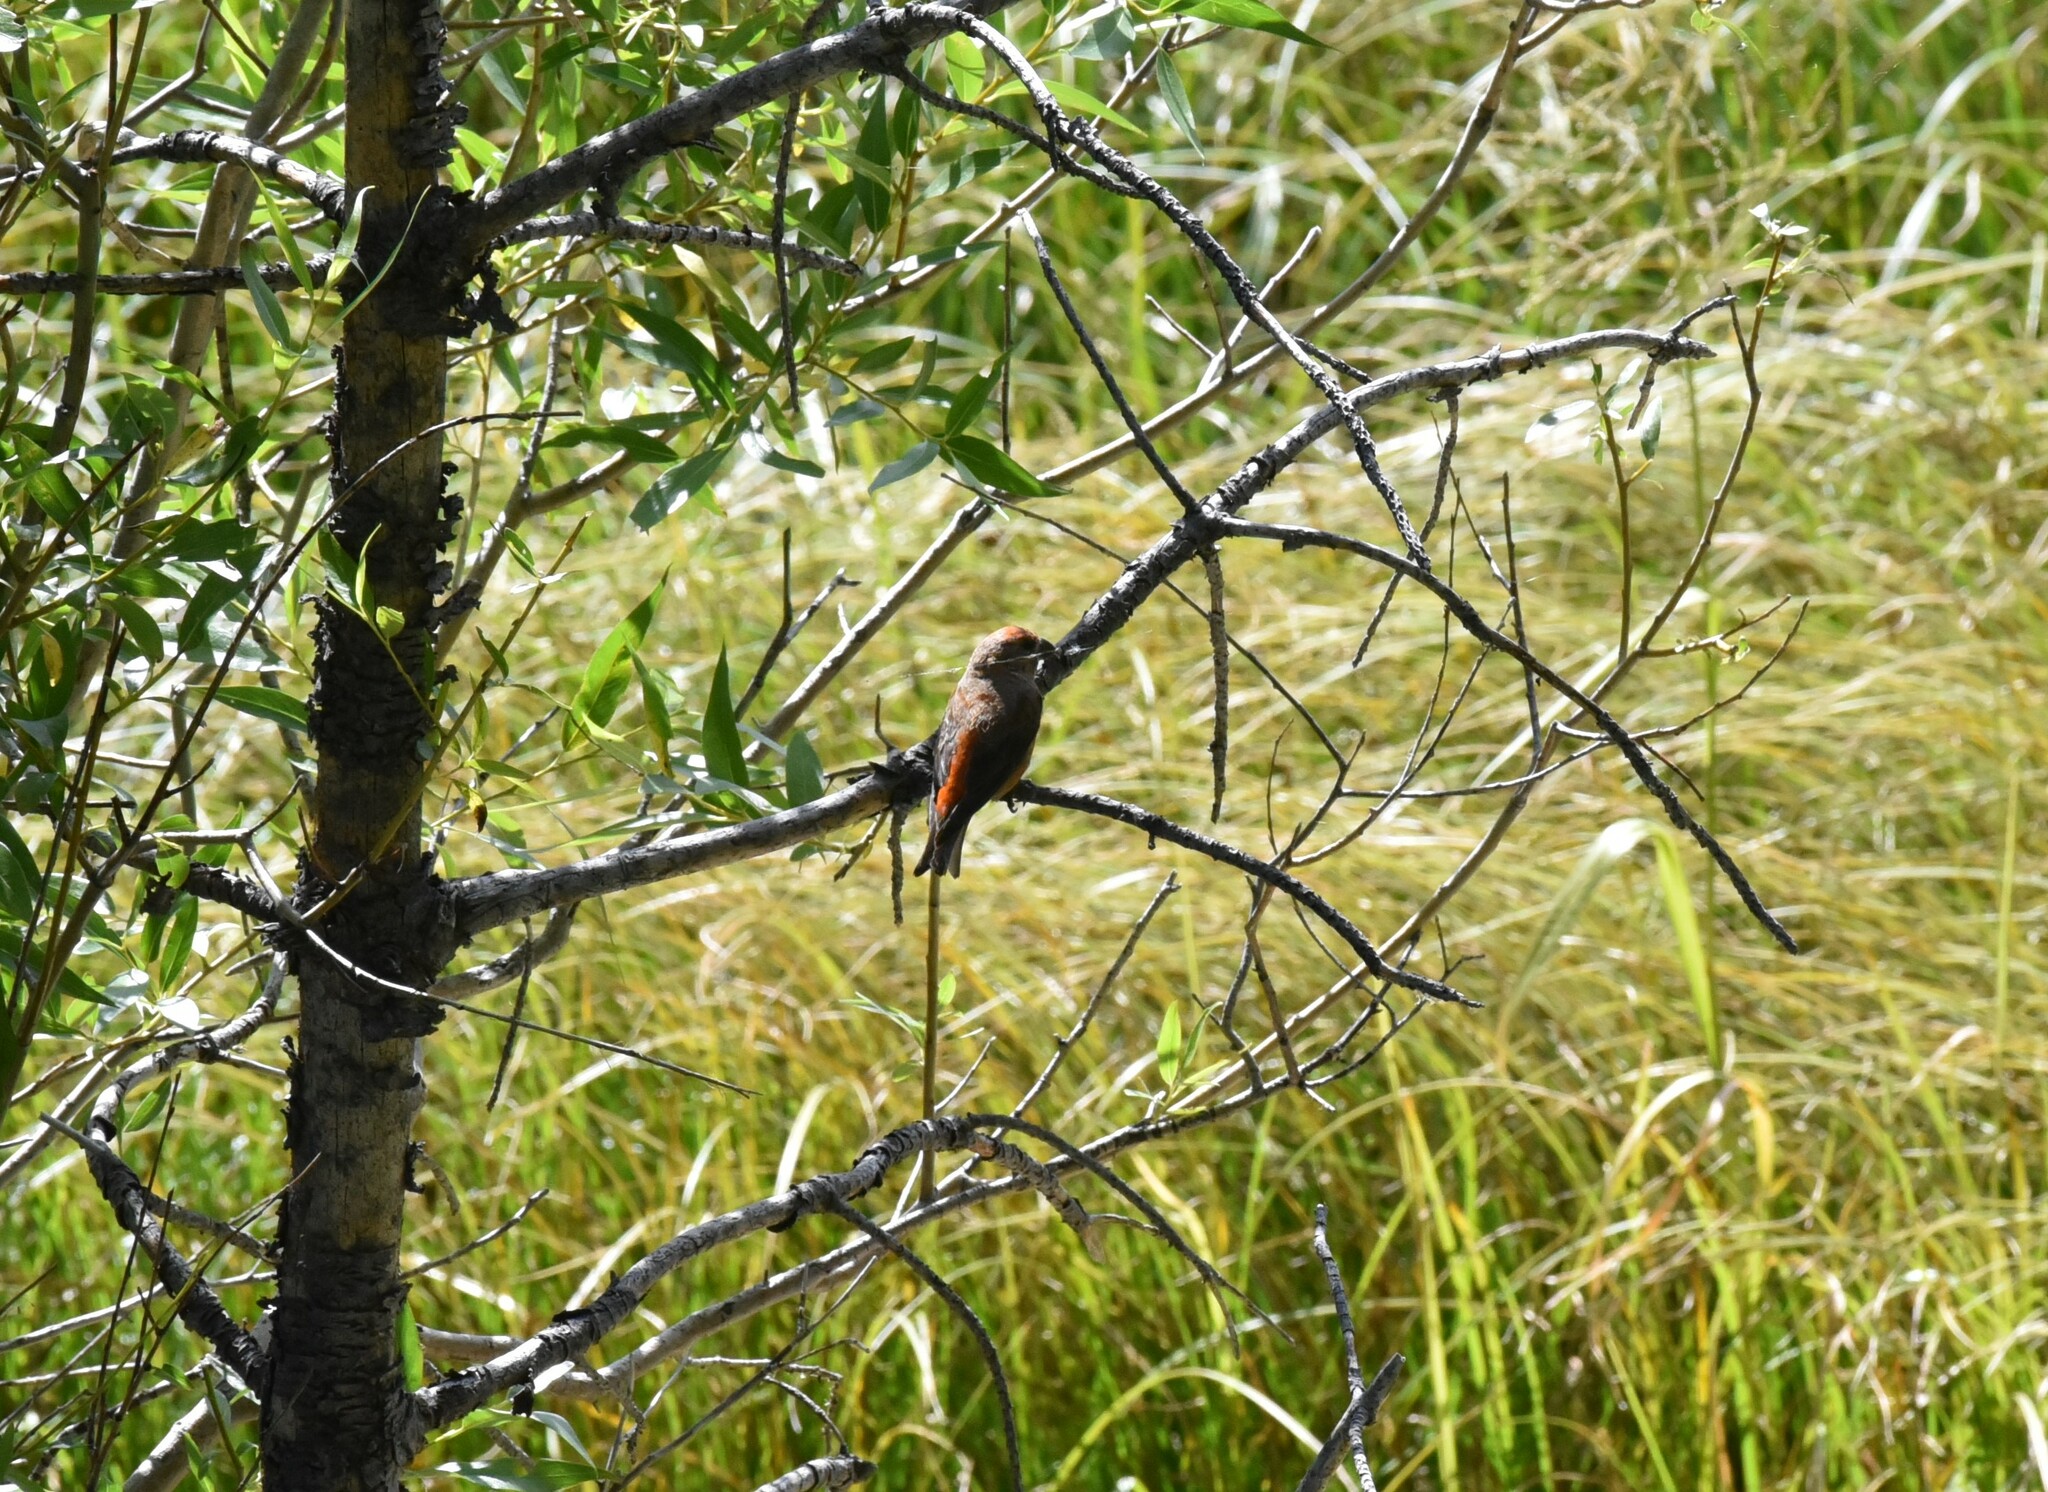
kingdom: Animalia
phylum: Chordata
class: Aves
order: Passeriformes
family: Fringillidae
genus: Loxia
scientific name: Loxia curvirostra
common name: Red crossbill
